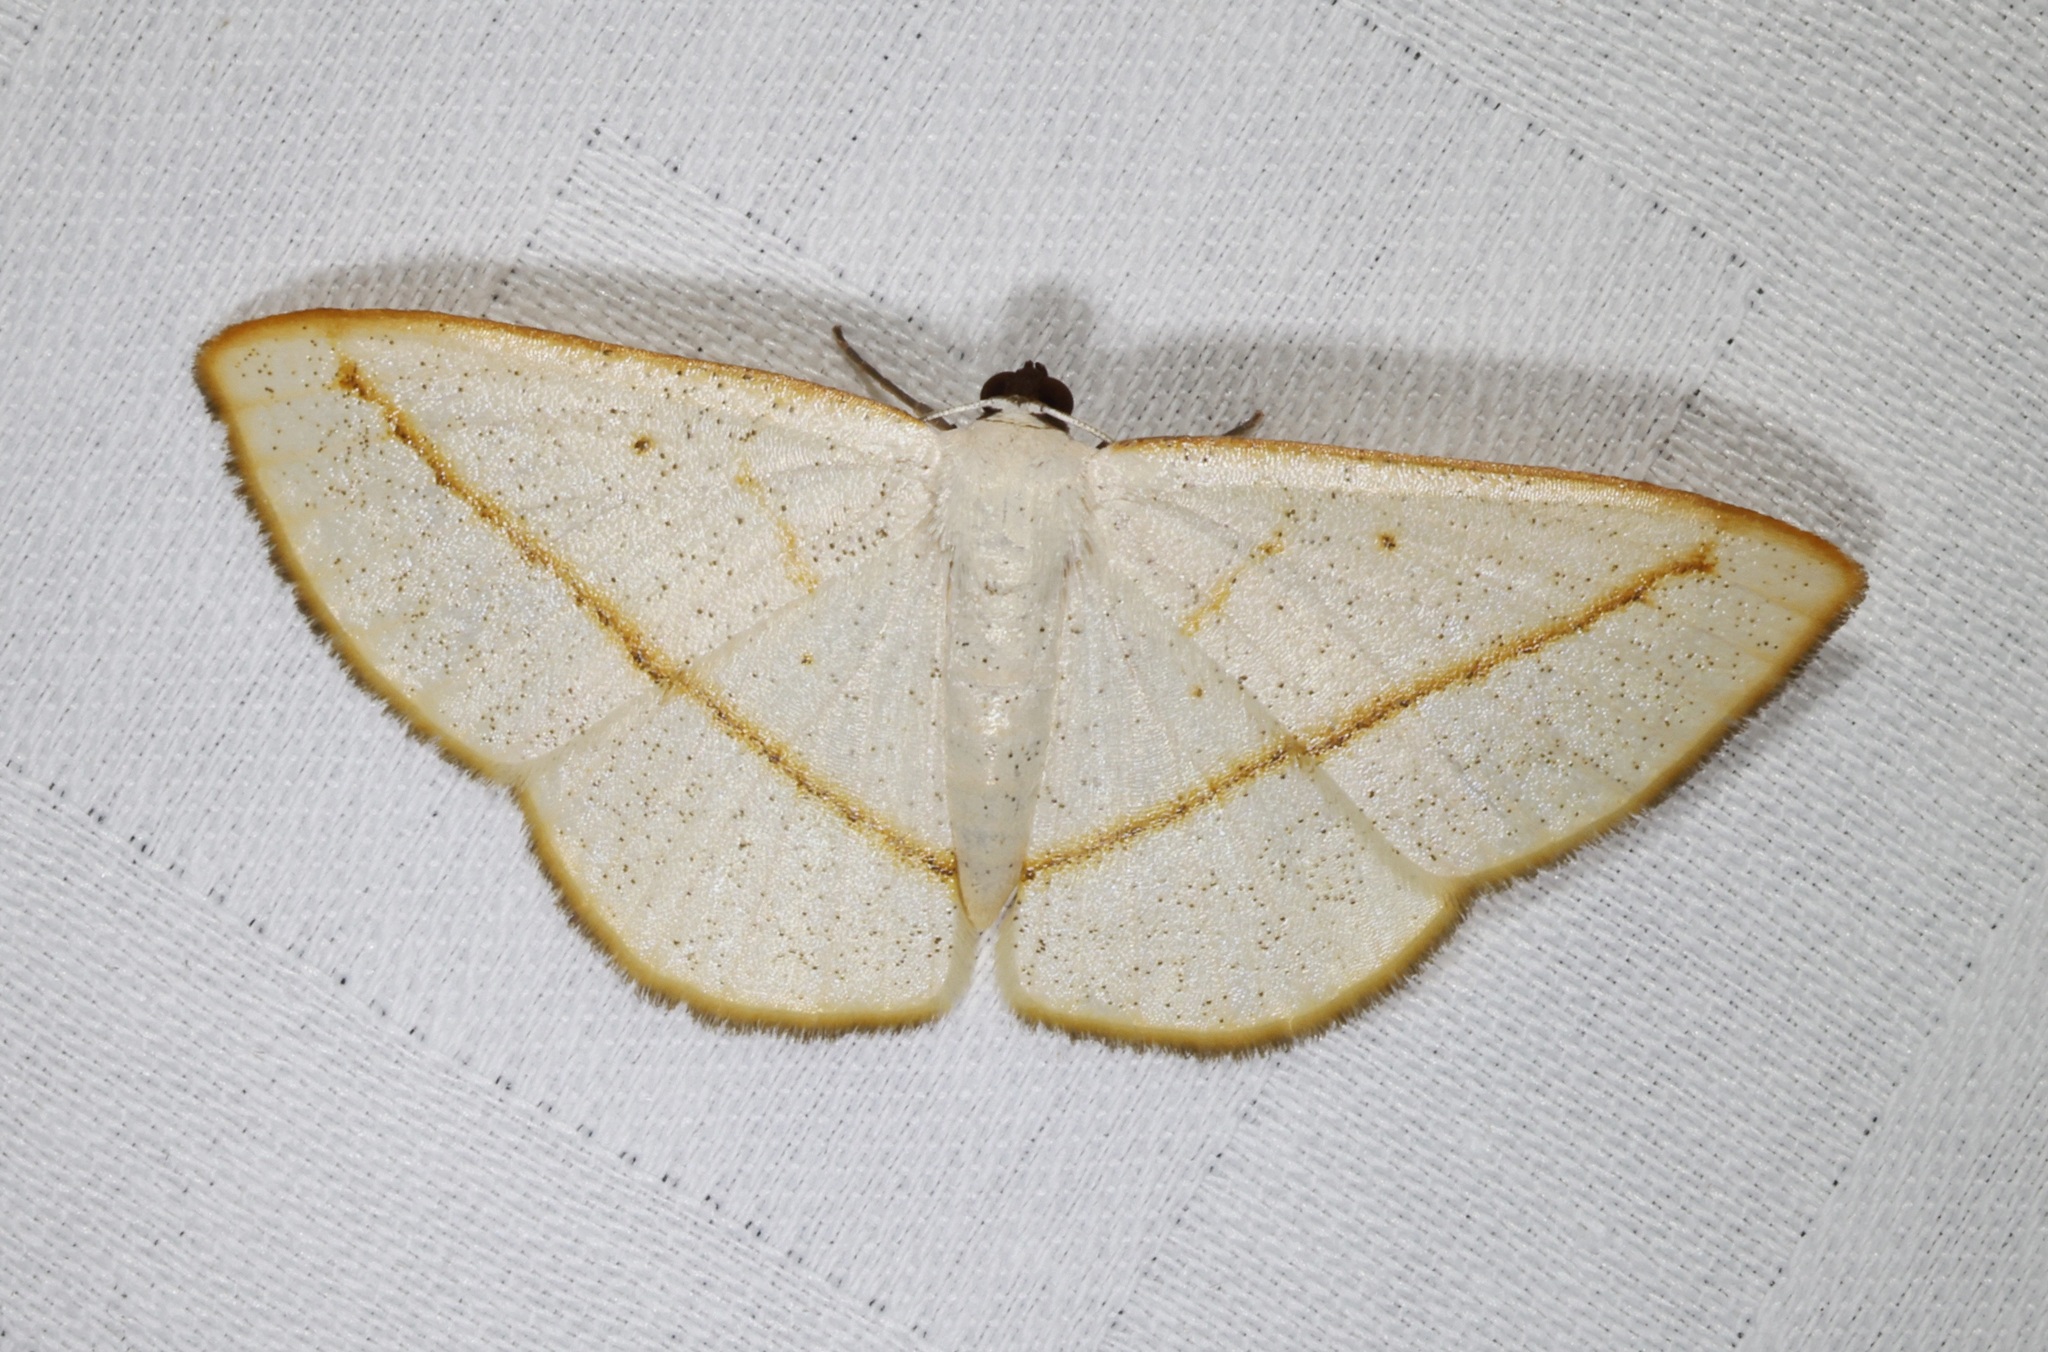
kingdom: Animalia
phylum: Arthropoda
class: Insecta
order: Lepidoptera
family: Geometridae
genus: Lomographa
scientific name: Lomographa inamata
